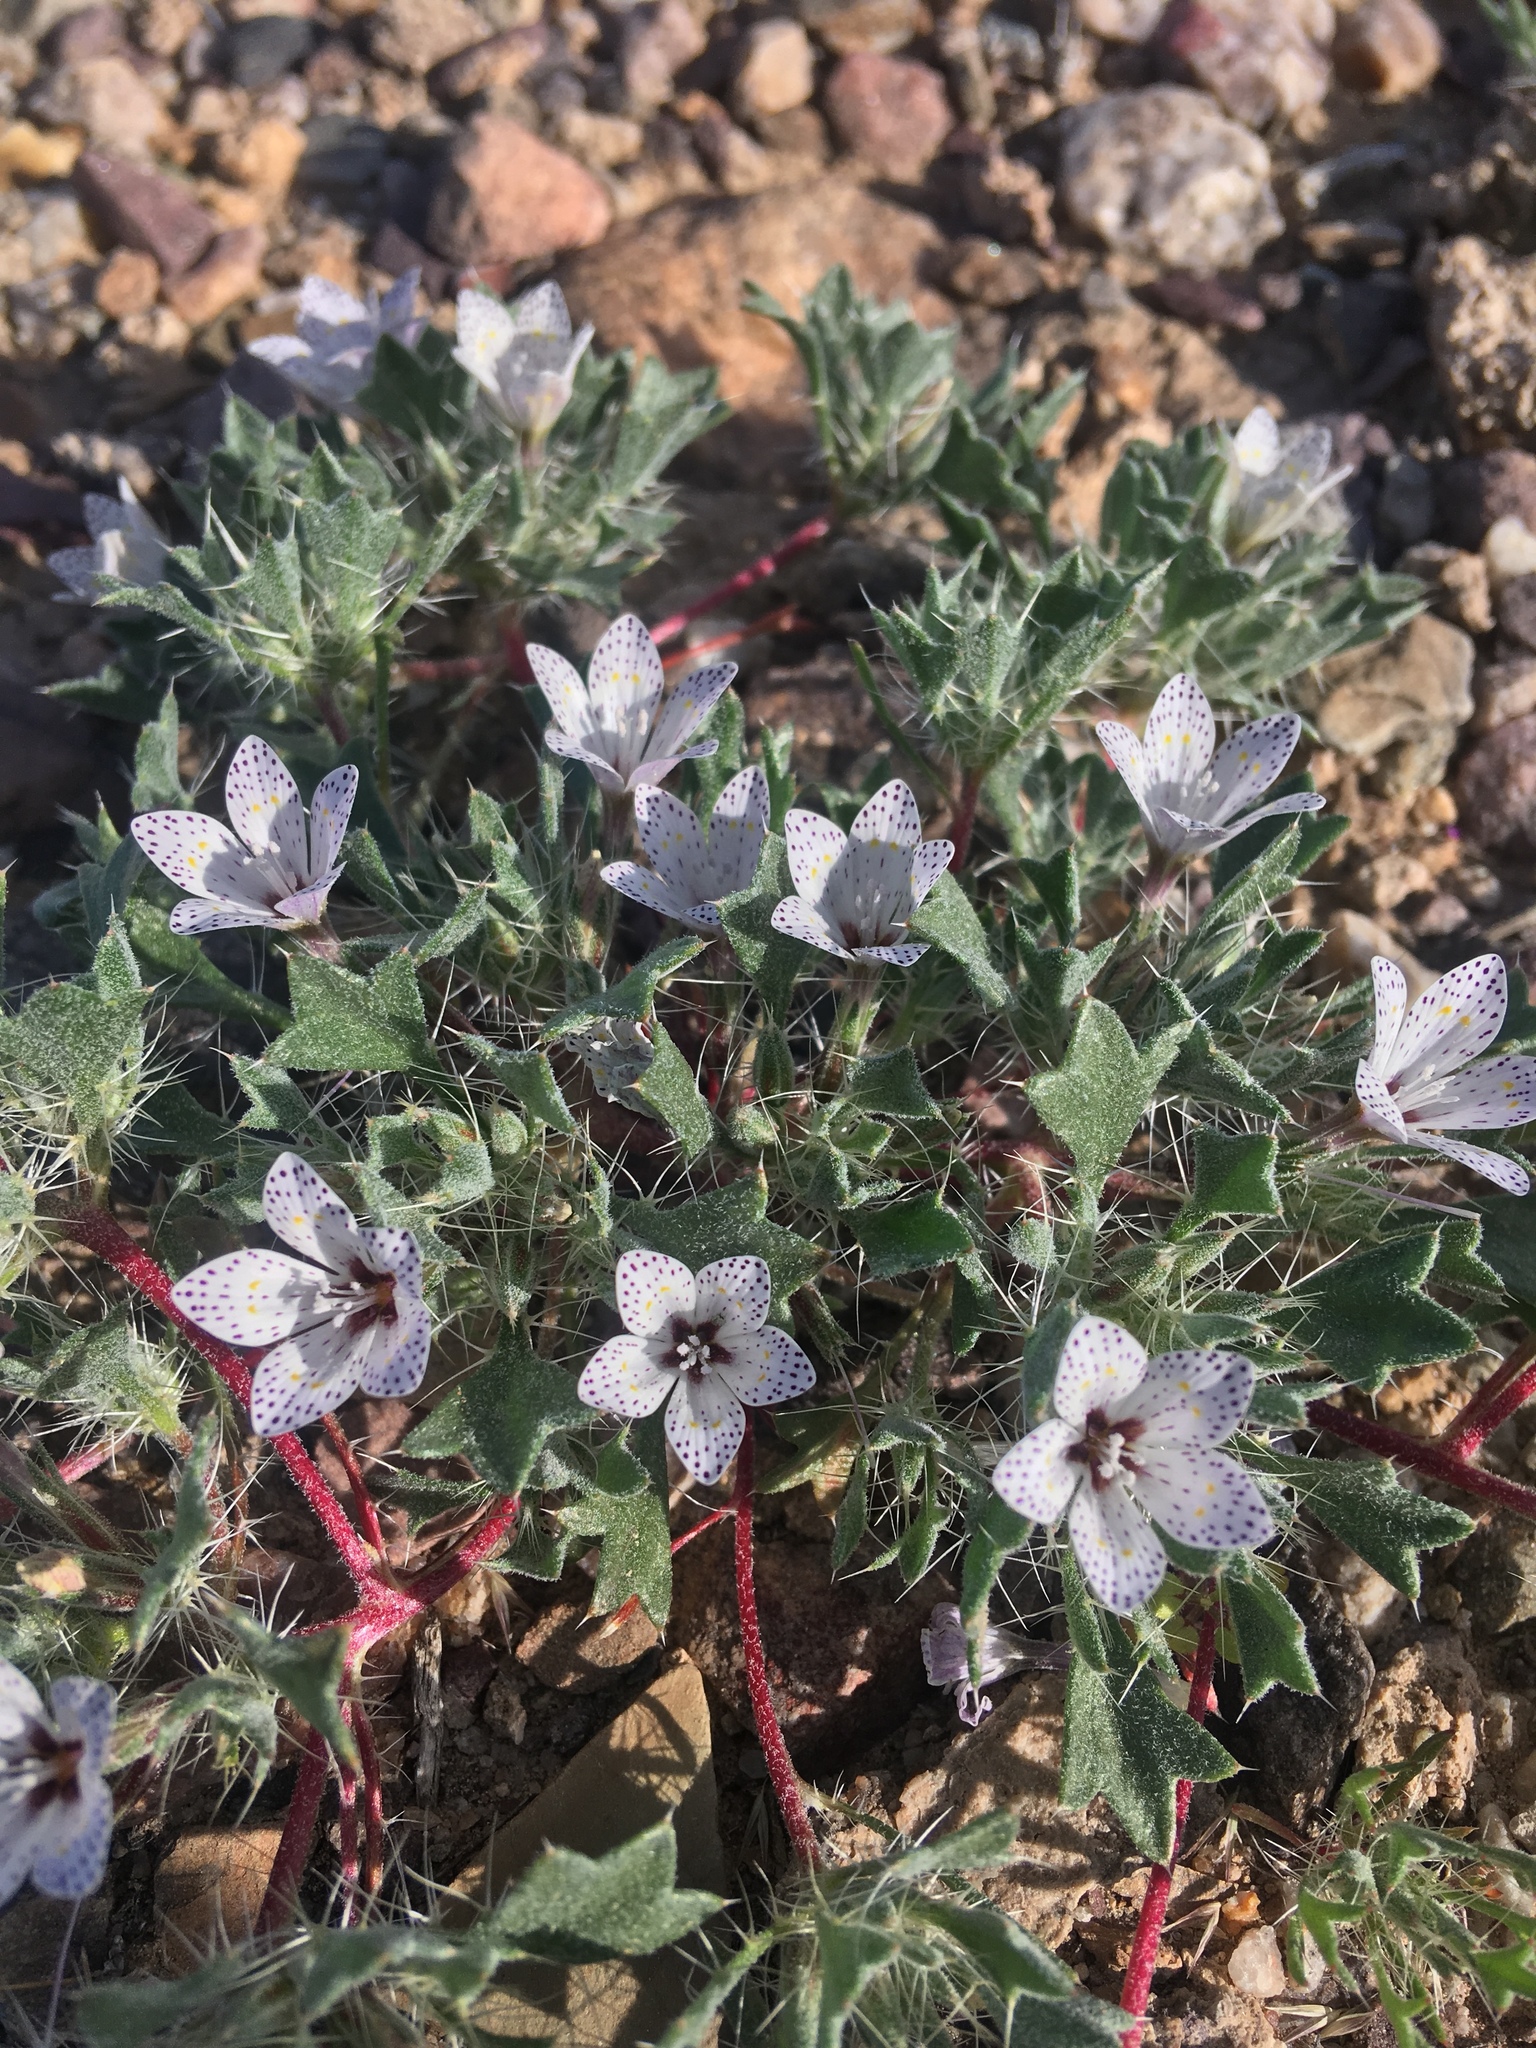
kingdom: Plantae
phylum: Tracheophyta
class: Magnoliopsida
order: Ericales
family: Polemoniaceae
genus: Langloisia
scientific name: Langloisia setosissima
